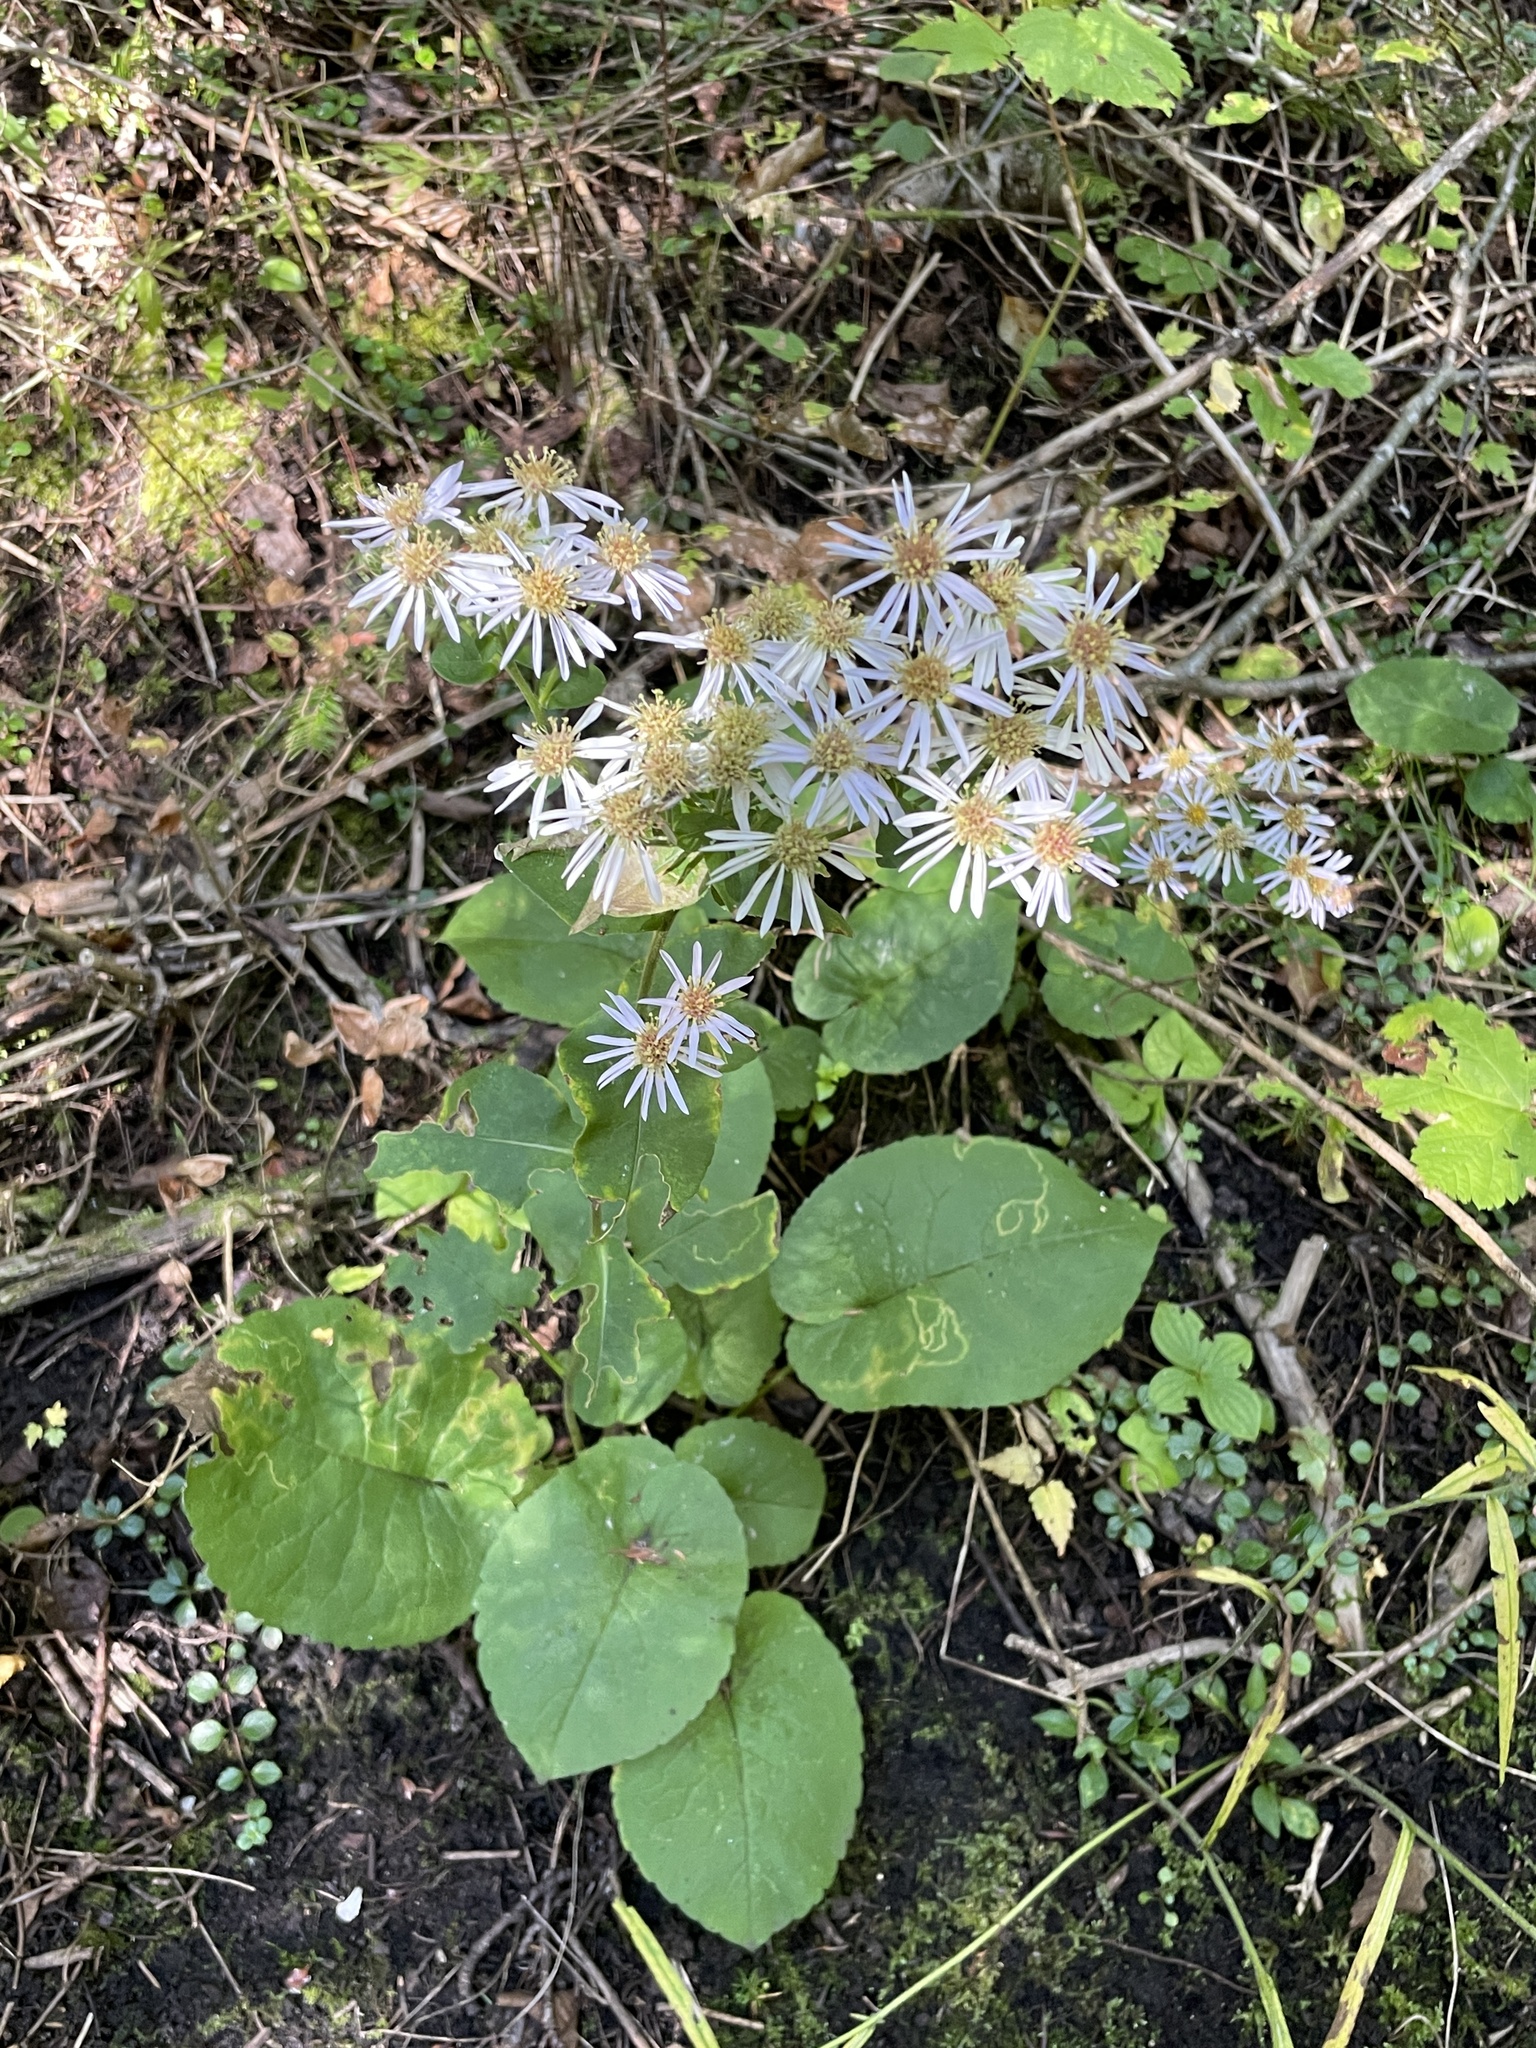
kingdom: Plantae
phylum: Tracheophyta
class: Magnoliopsida
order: Asterales
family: Asteraceae
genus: Eurybia
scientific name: Eurybia macrophylla
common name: Big-leaved aster
